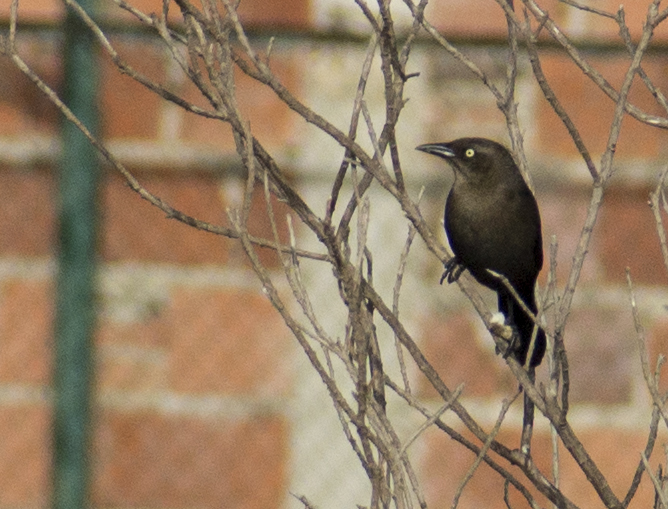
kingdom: Animalia
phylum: Chordata
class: Aves
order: Passeriformes
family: Icteridae
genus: Quiscalus
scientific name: Quiscalus lugubris
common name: Carib grackle
